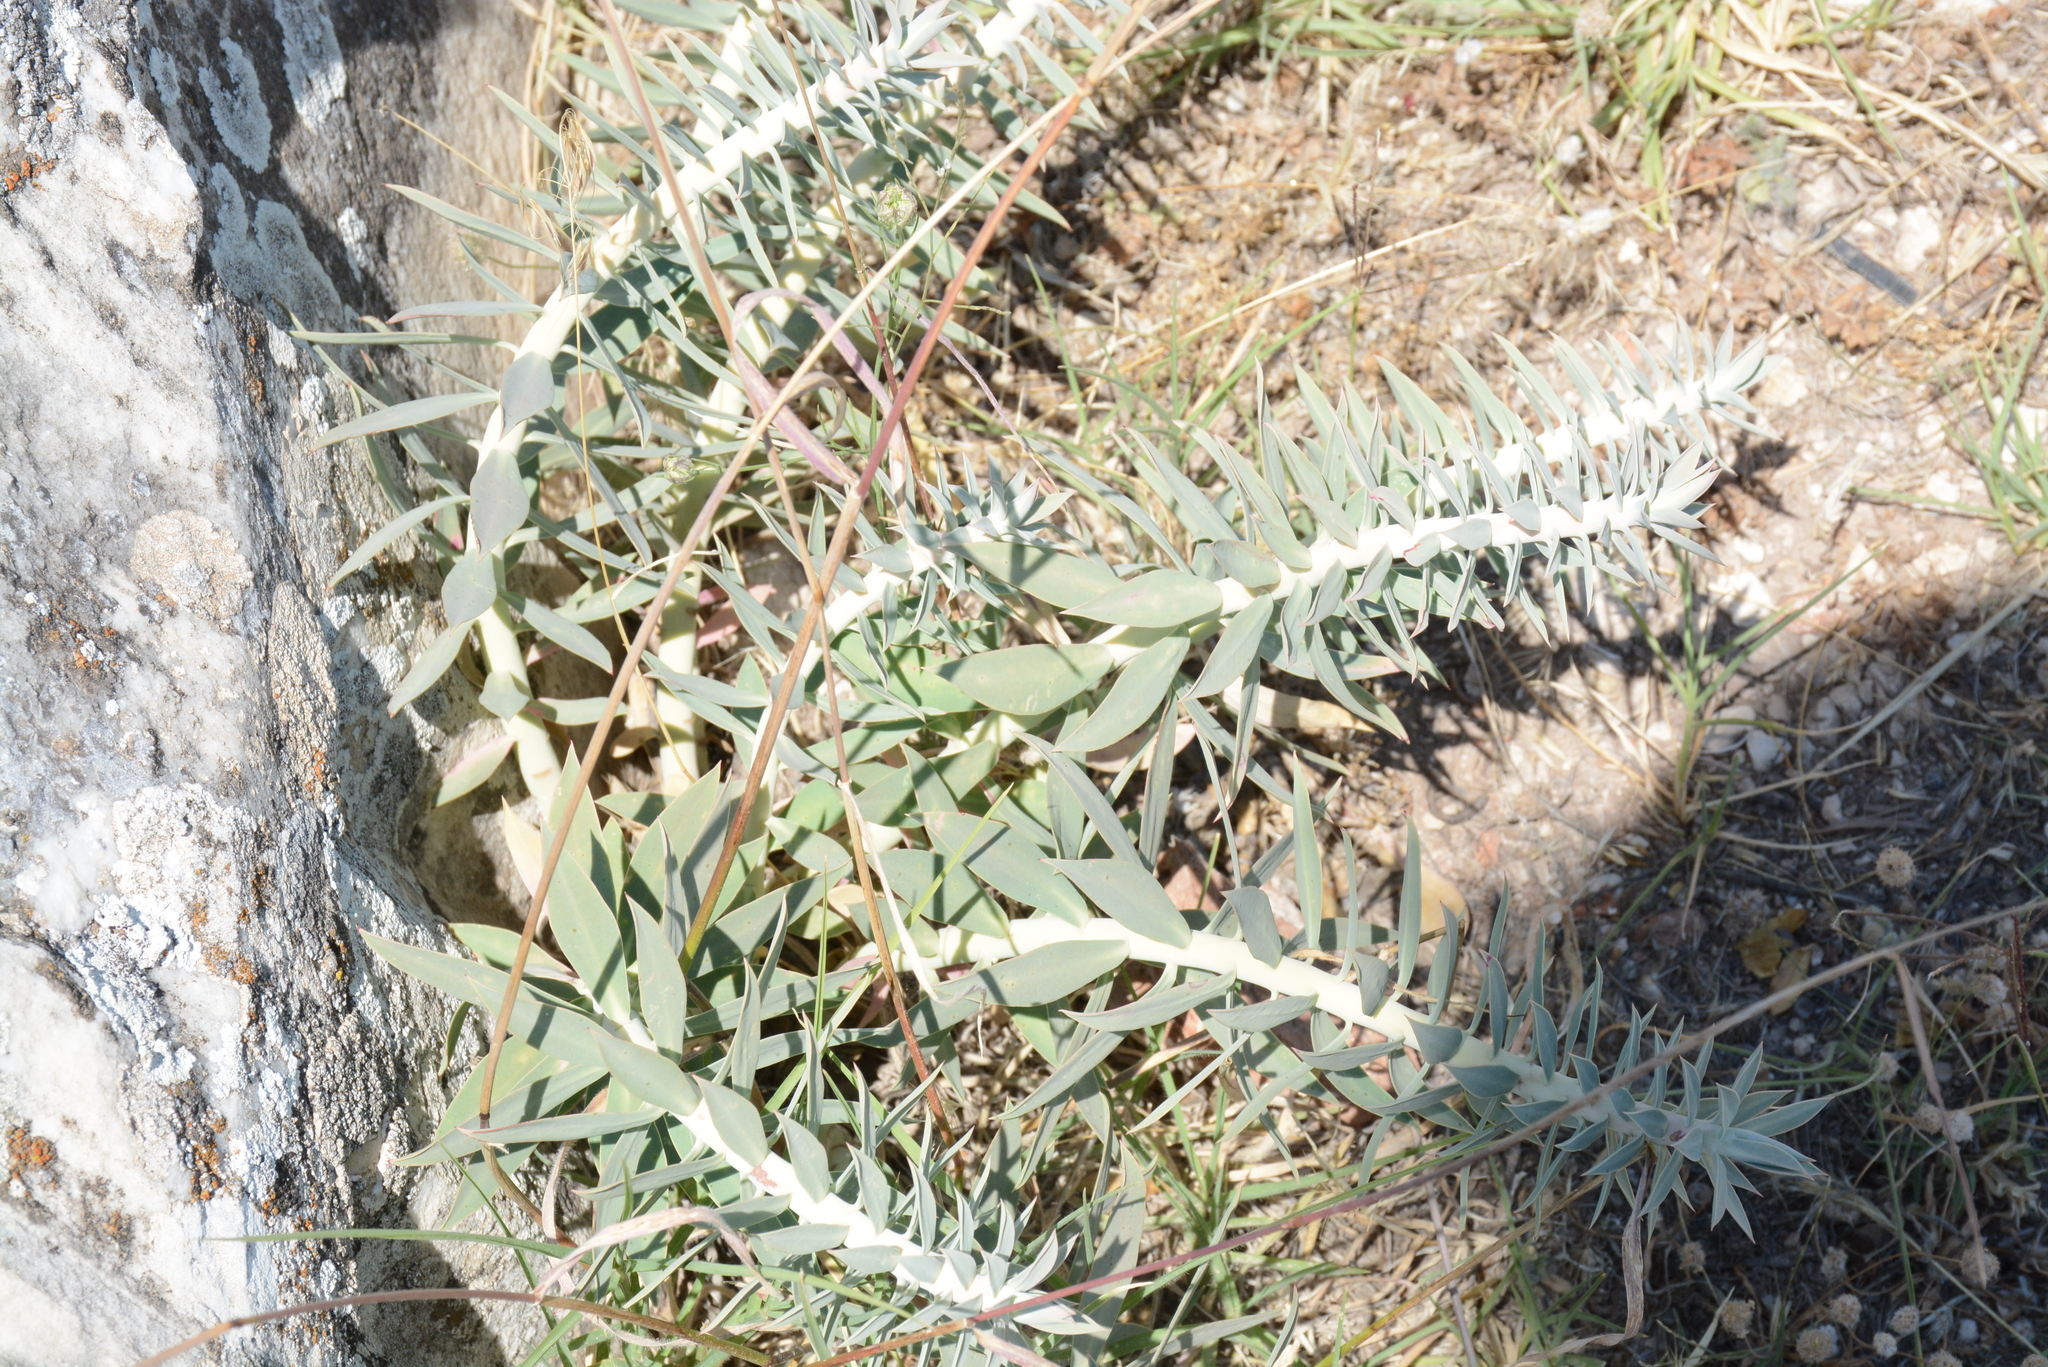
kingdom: Plantae
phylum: Tracheophyta
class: Magnoliopsida
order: Malpighiales
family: Euphorbiaceae
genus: Euphorbia
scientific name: Euphorbia rigida
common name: Upright myrtle spurge
